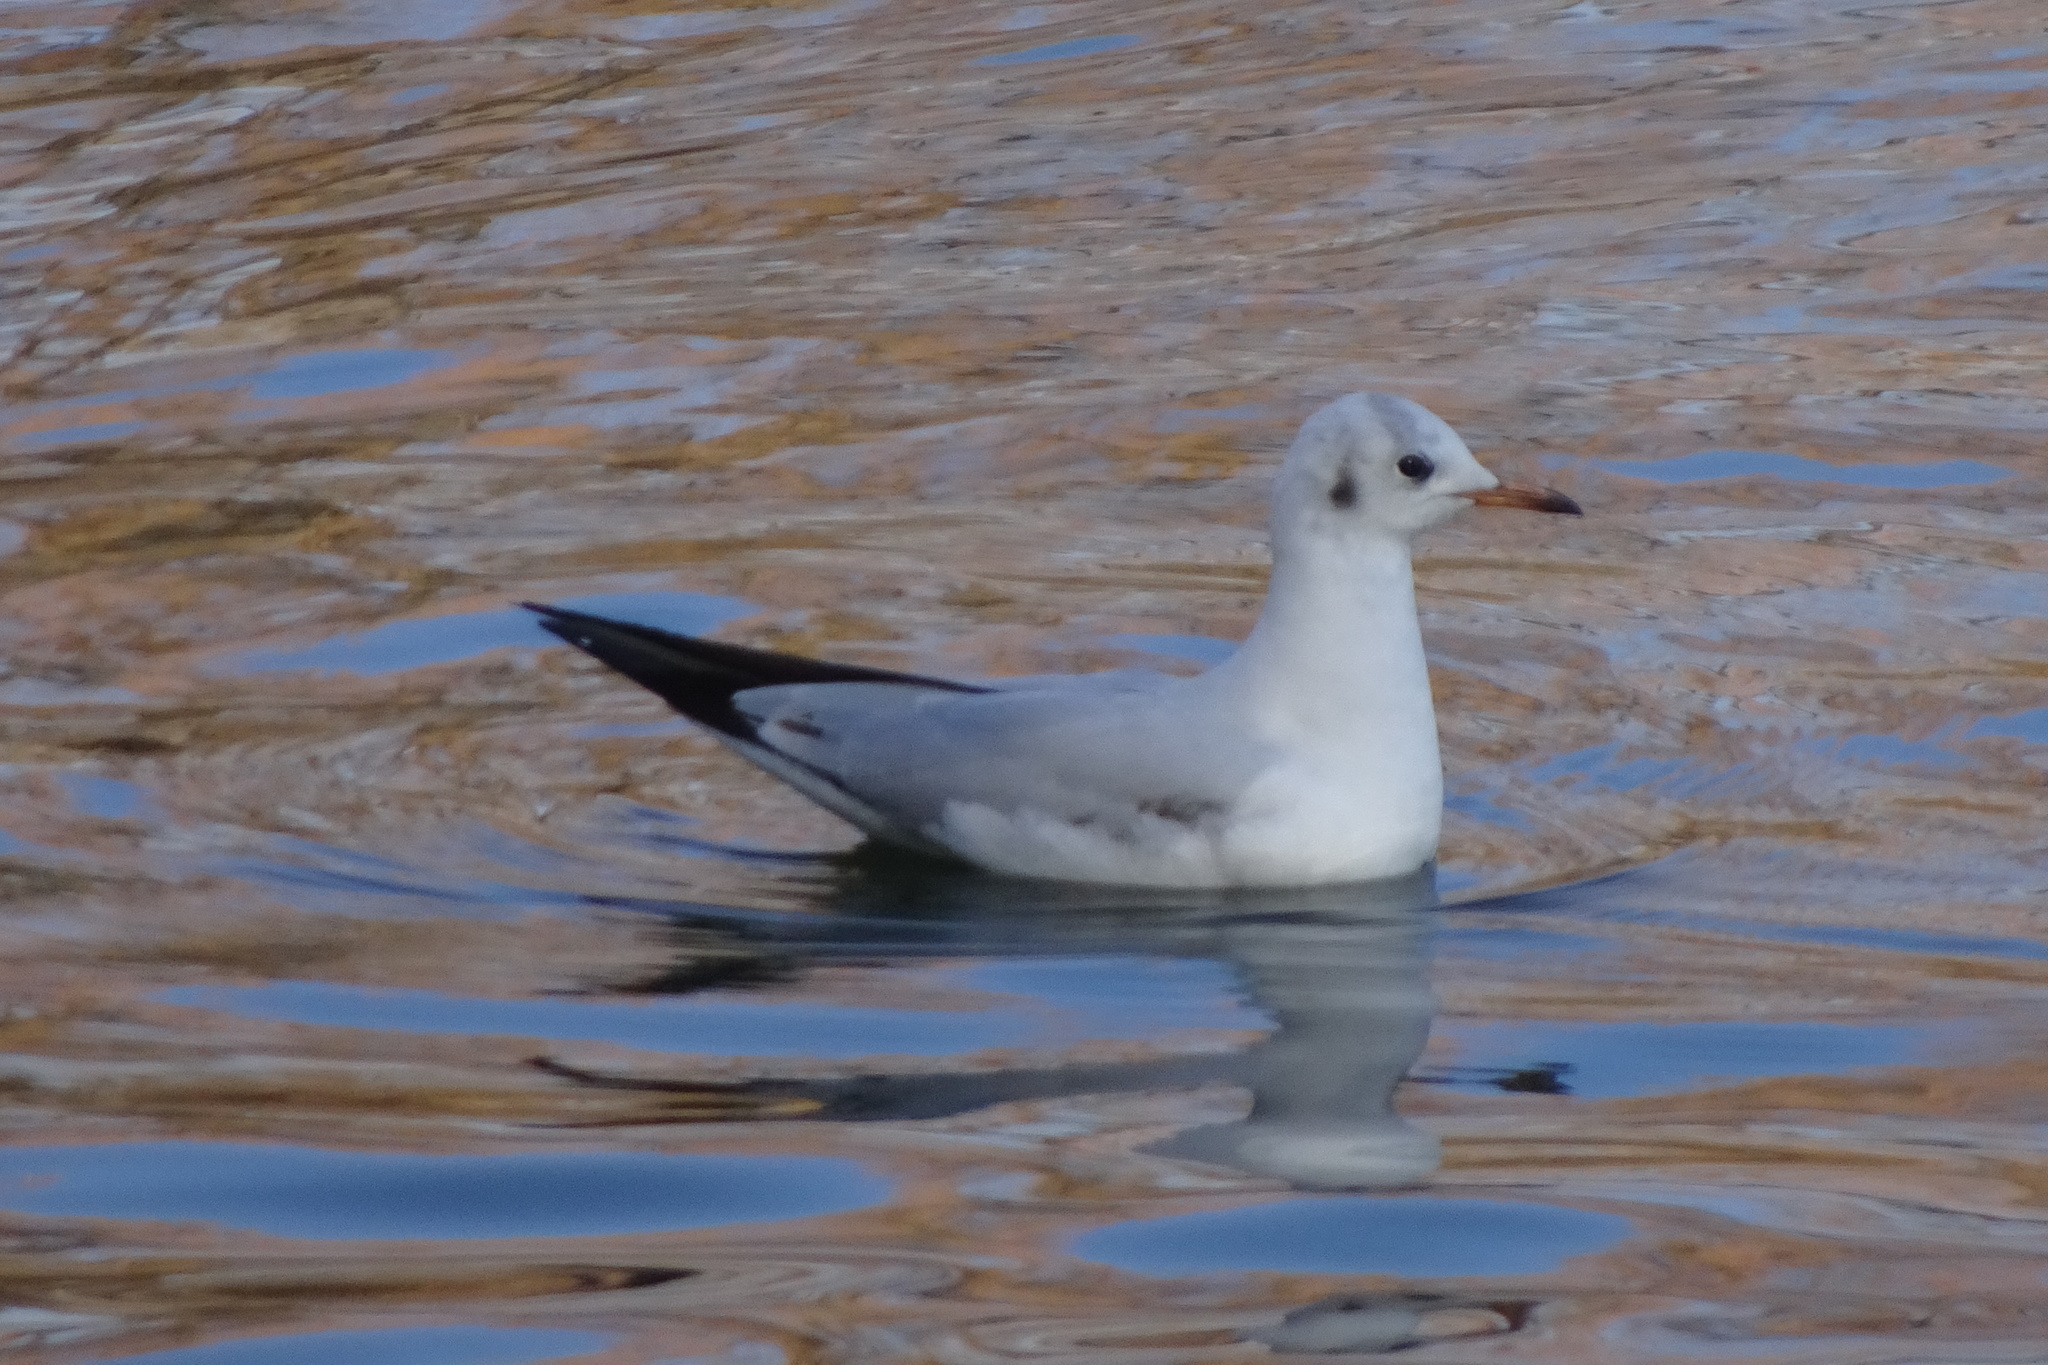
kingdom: Animalia
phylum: Chordata
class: Aves
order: Charadriiformes
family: Laridae
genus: Chroicocephalus
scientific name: Chroicocephalus ridibundus
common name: Black-headed gull
